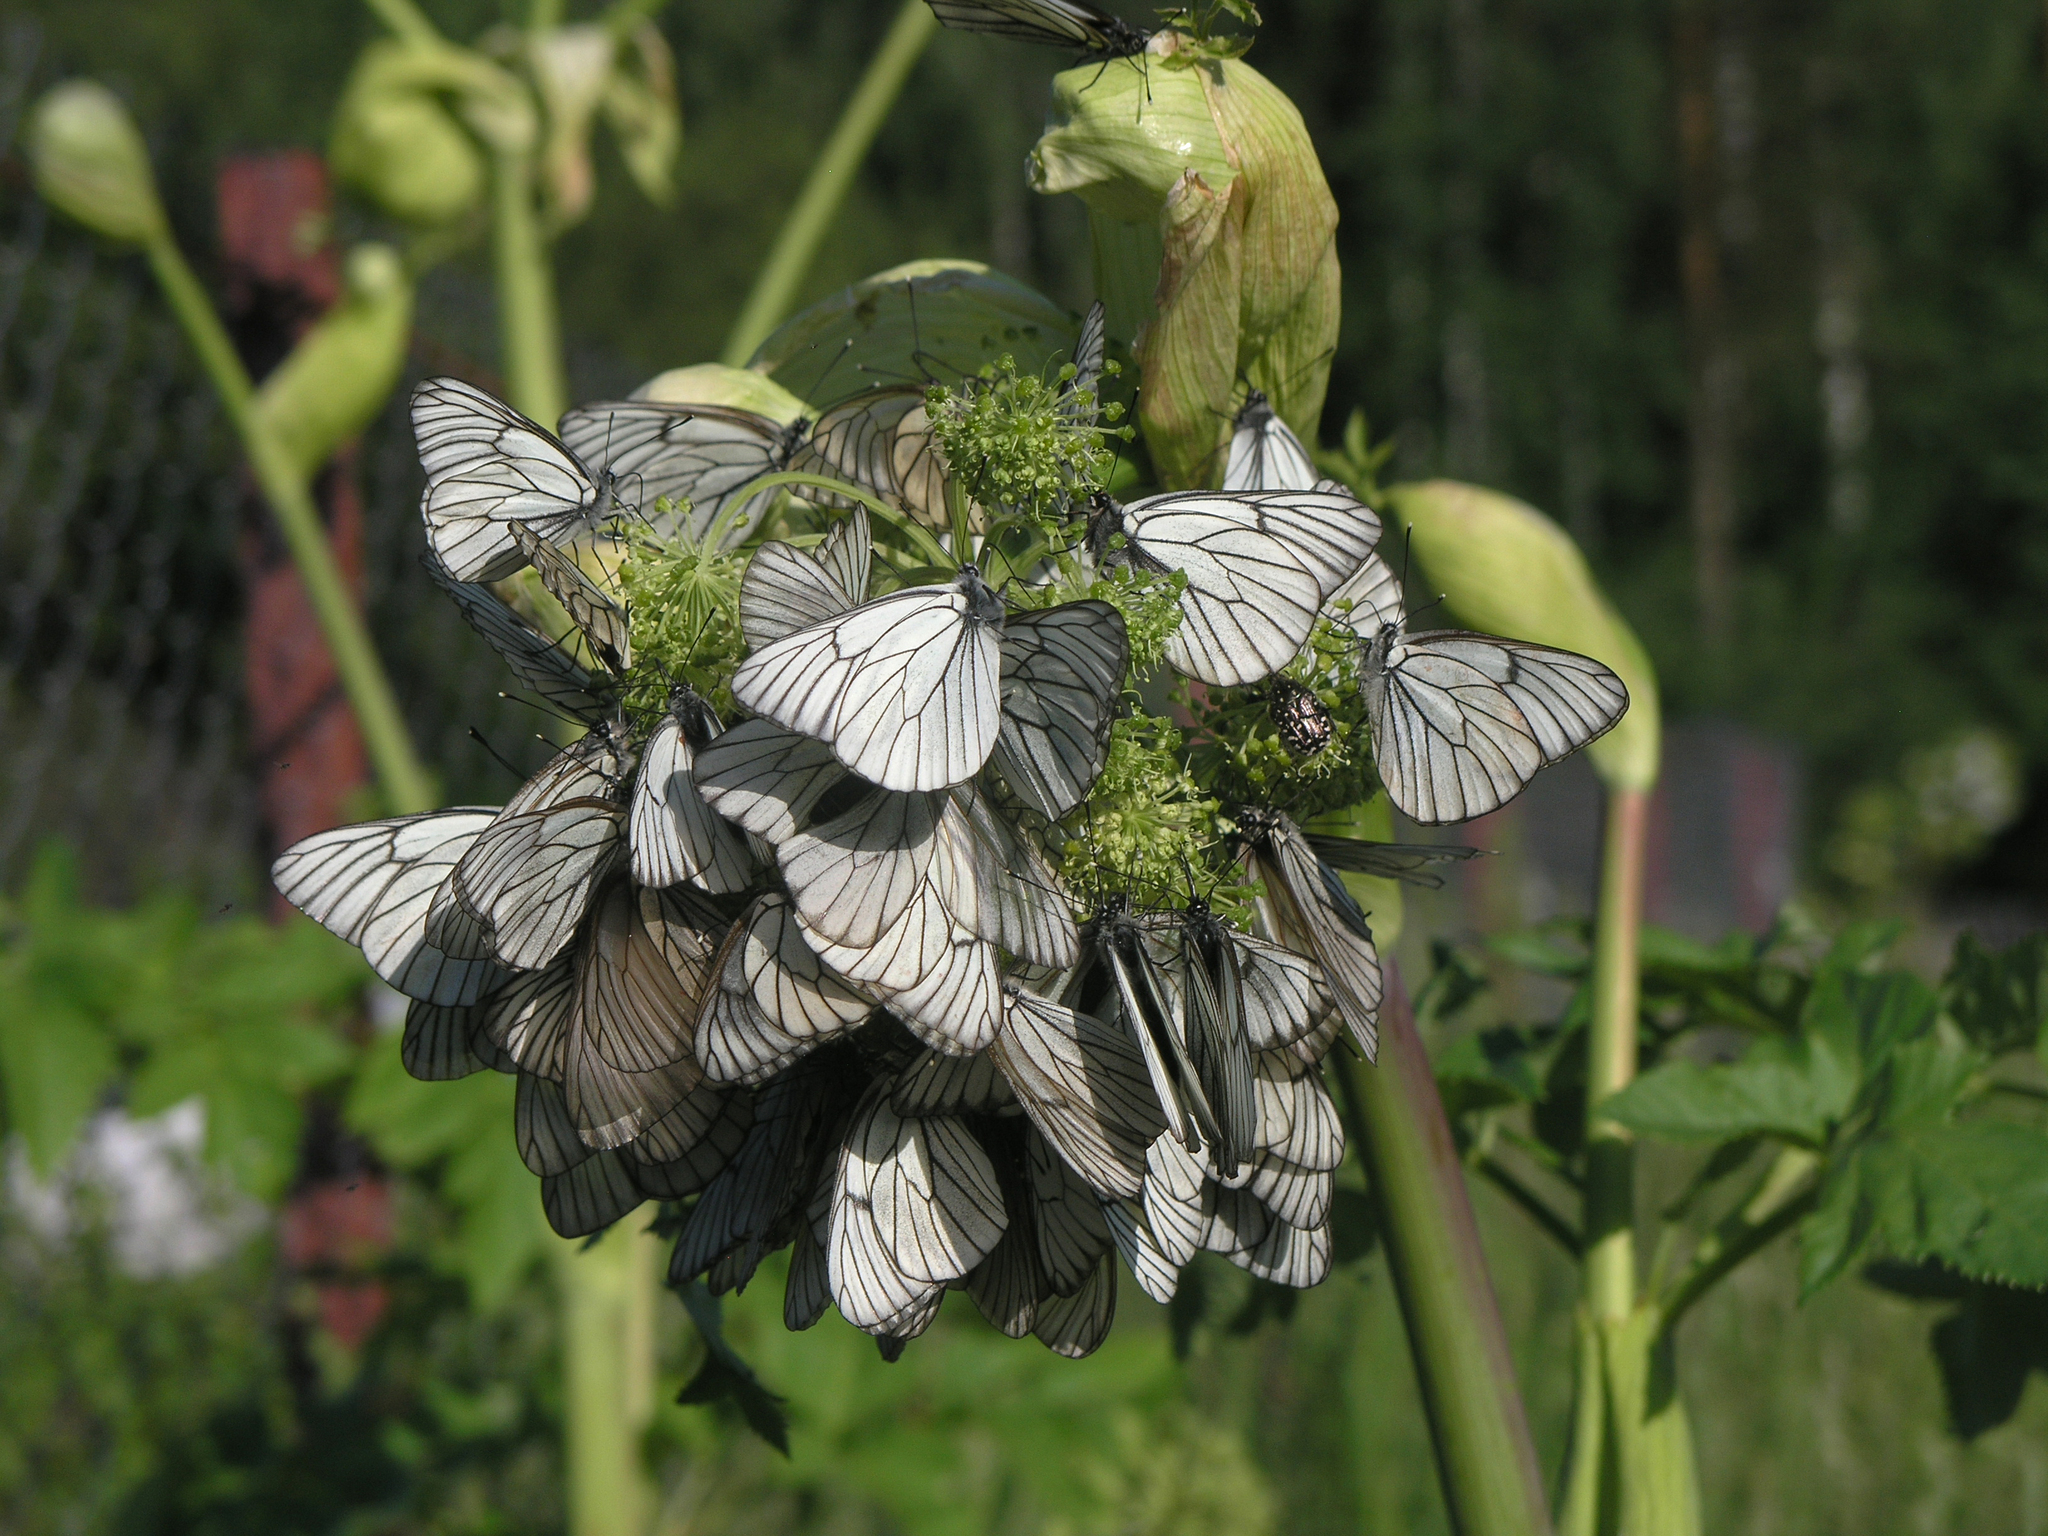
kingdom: Plantae
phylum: Tracheophyta
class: Magnoliopsida
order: Apiales
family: Apiaceae
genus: Angelica
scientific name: Angelica decurrens
